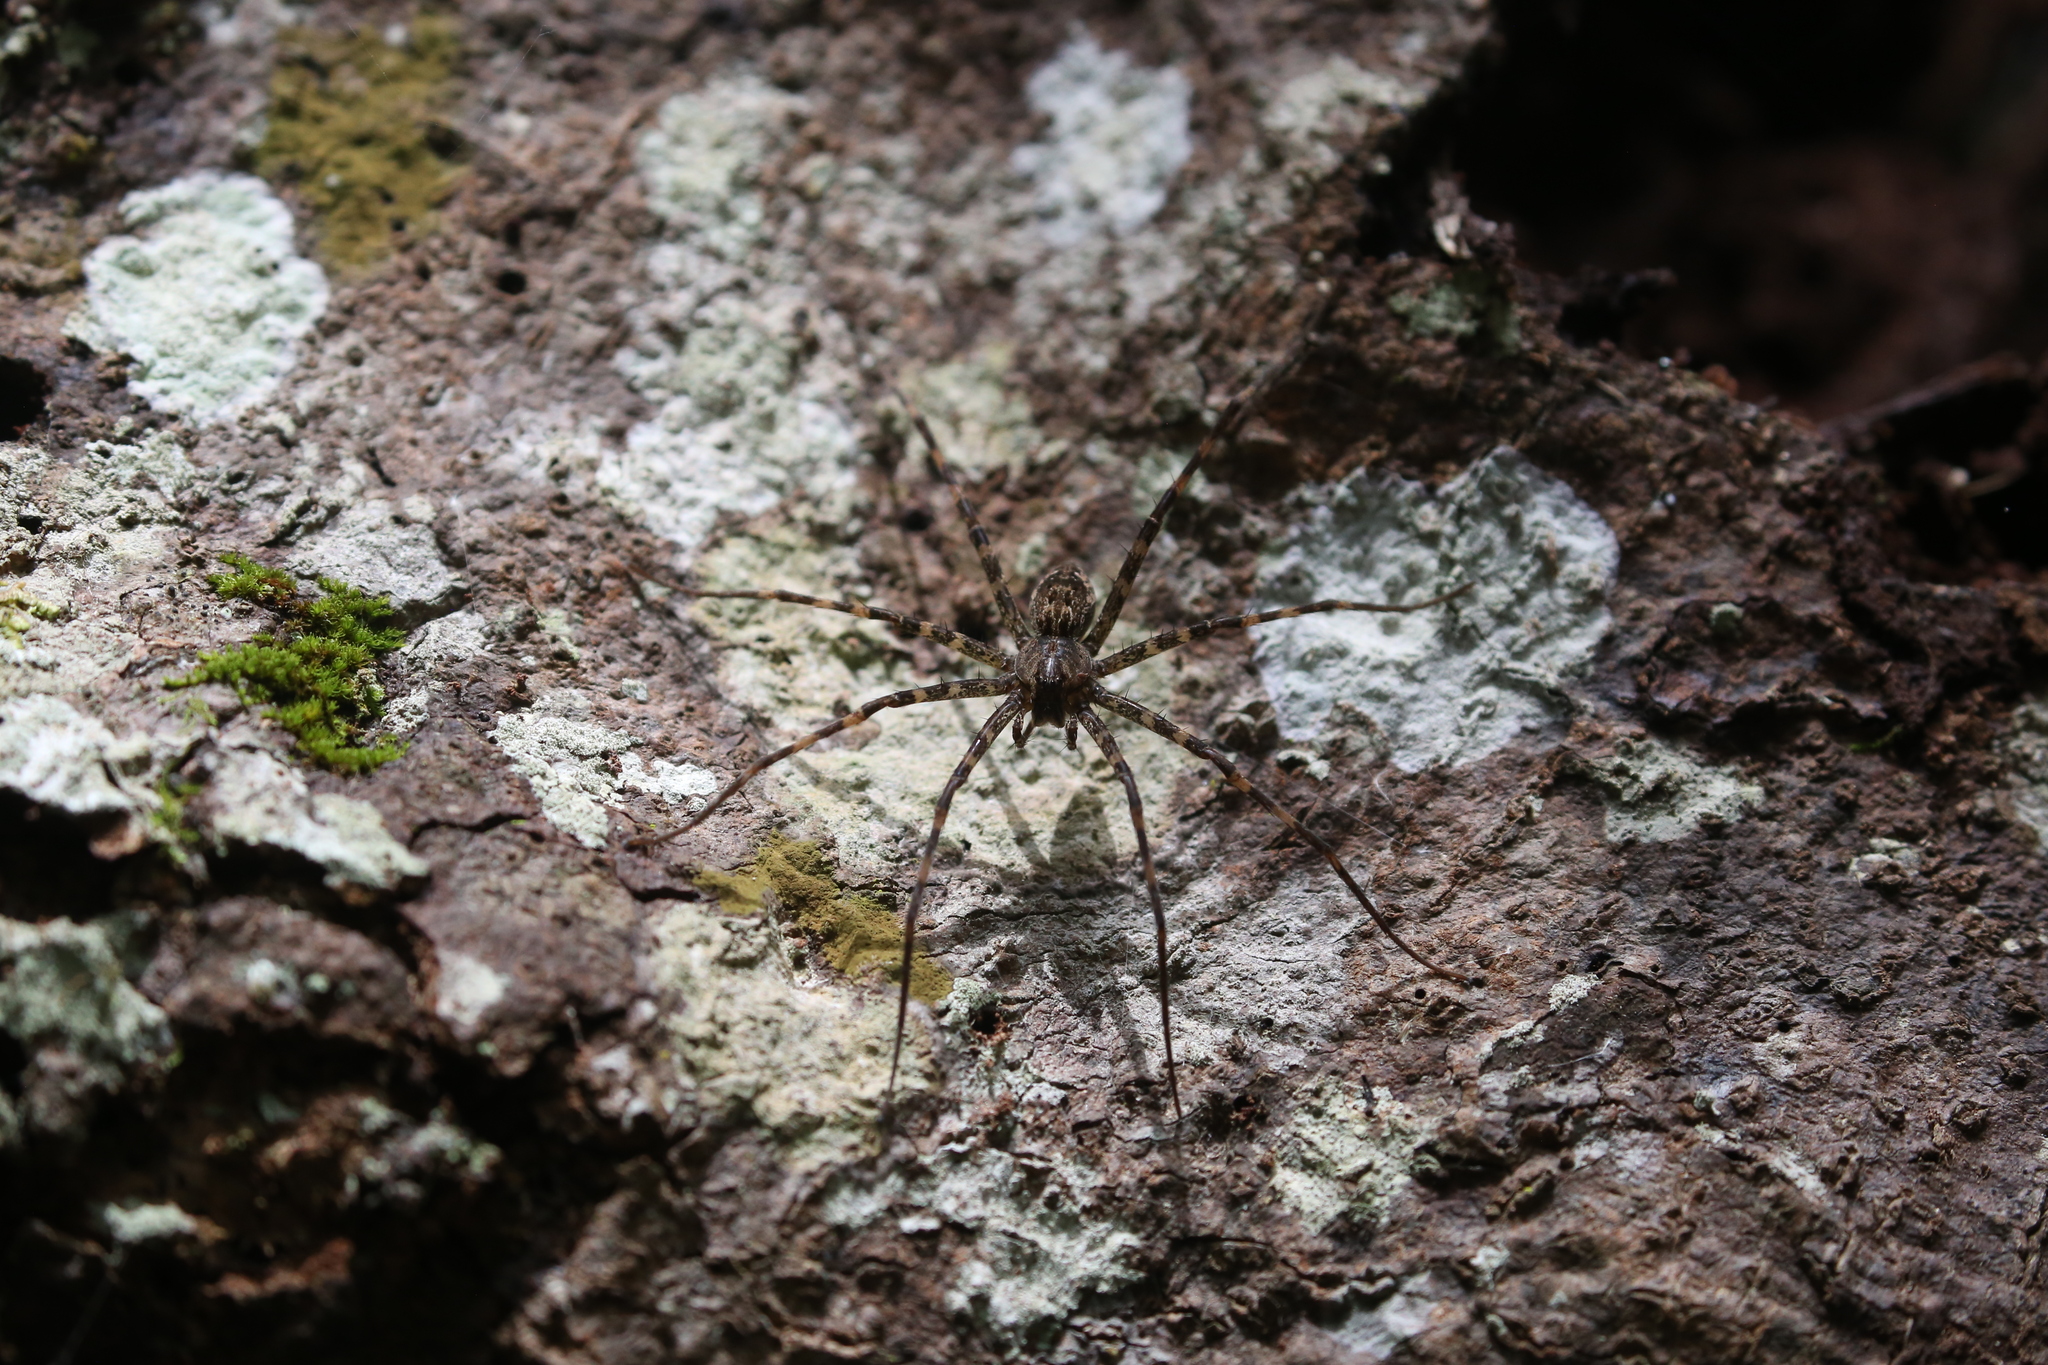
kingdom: Animalia
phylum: Arthropoda
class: Arachnida
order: Araneae
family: Pisauridae
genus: Megadolomedes
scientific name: Megadolomedes trux
